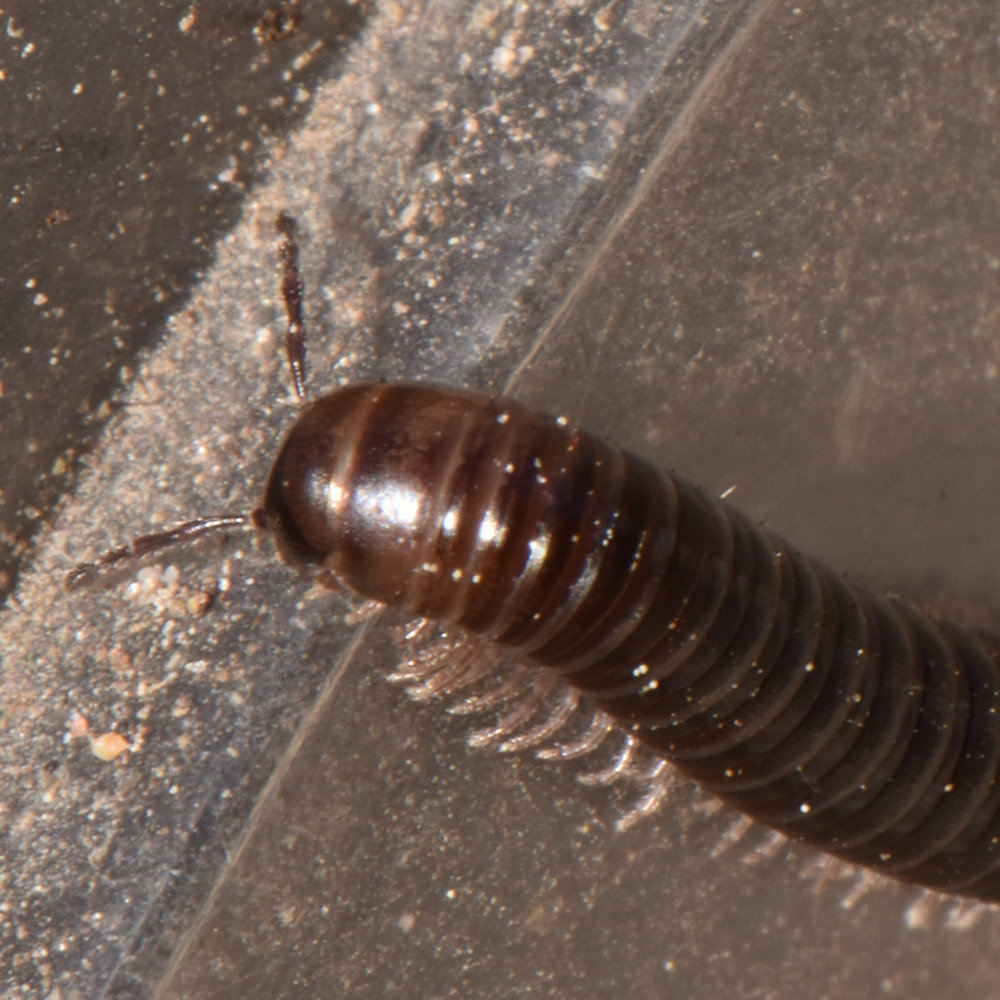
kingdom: Animalia
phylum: Arthropoda
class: Diplopoda
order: Julida
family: Julidae
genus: Ophyiulus
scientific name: Ophyiulus pilosus
